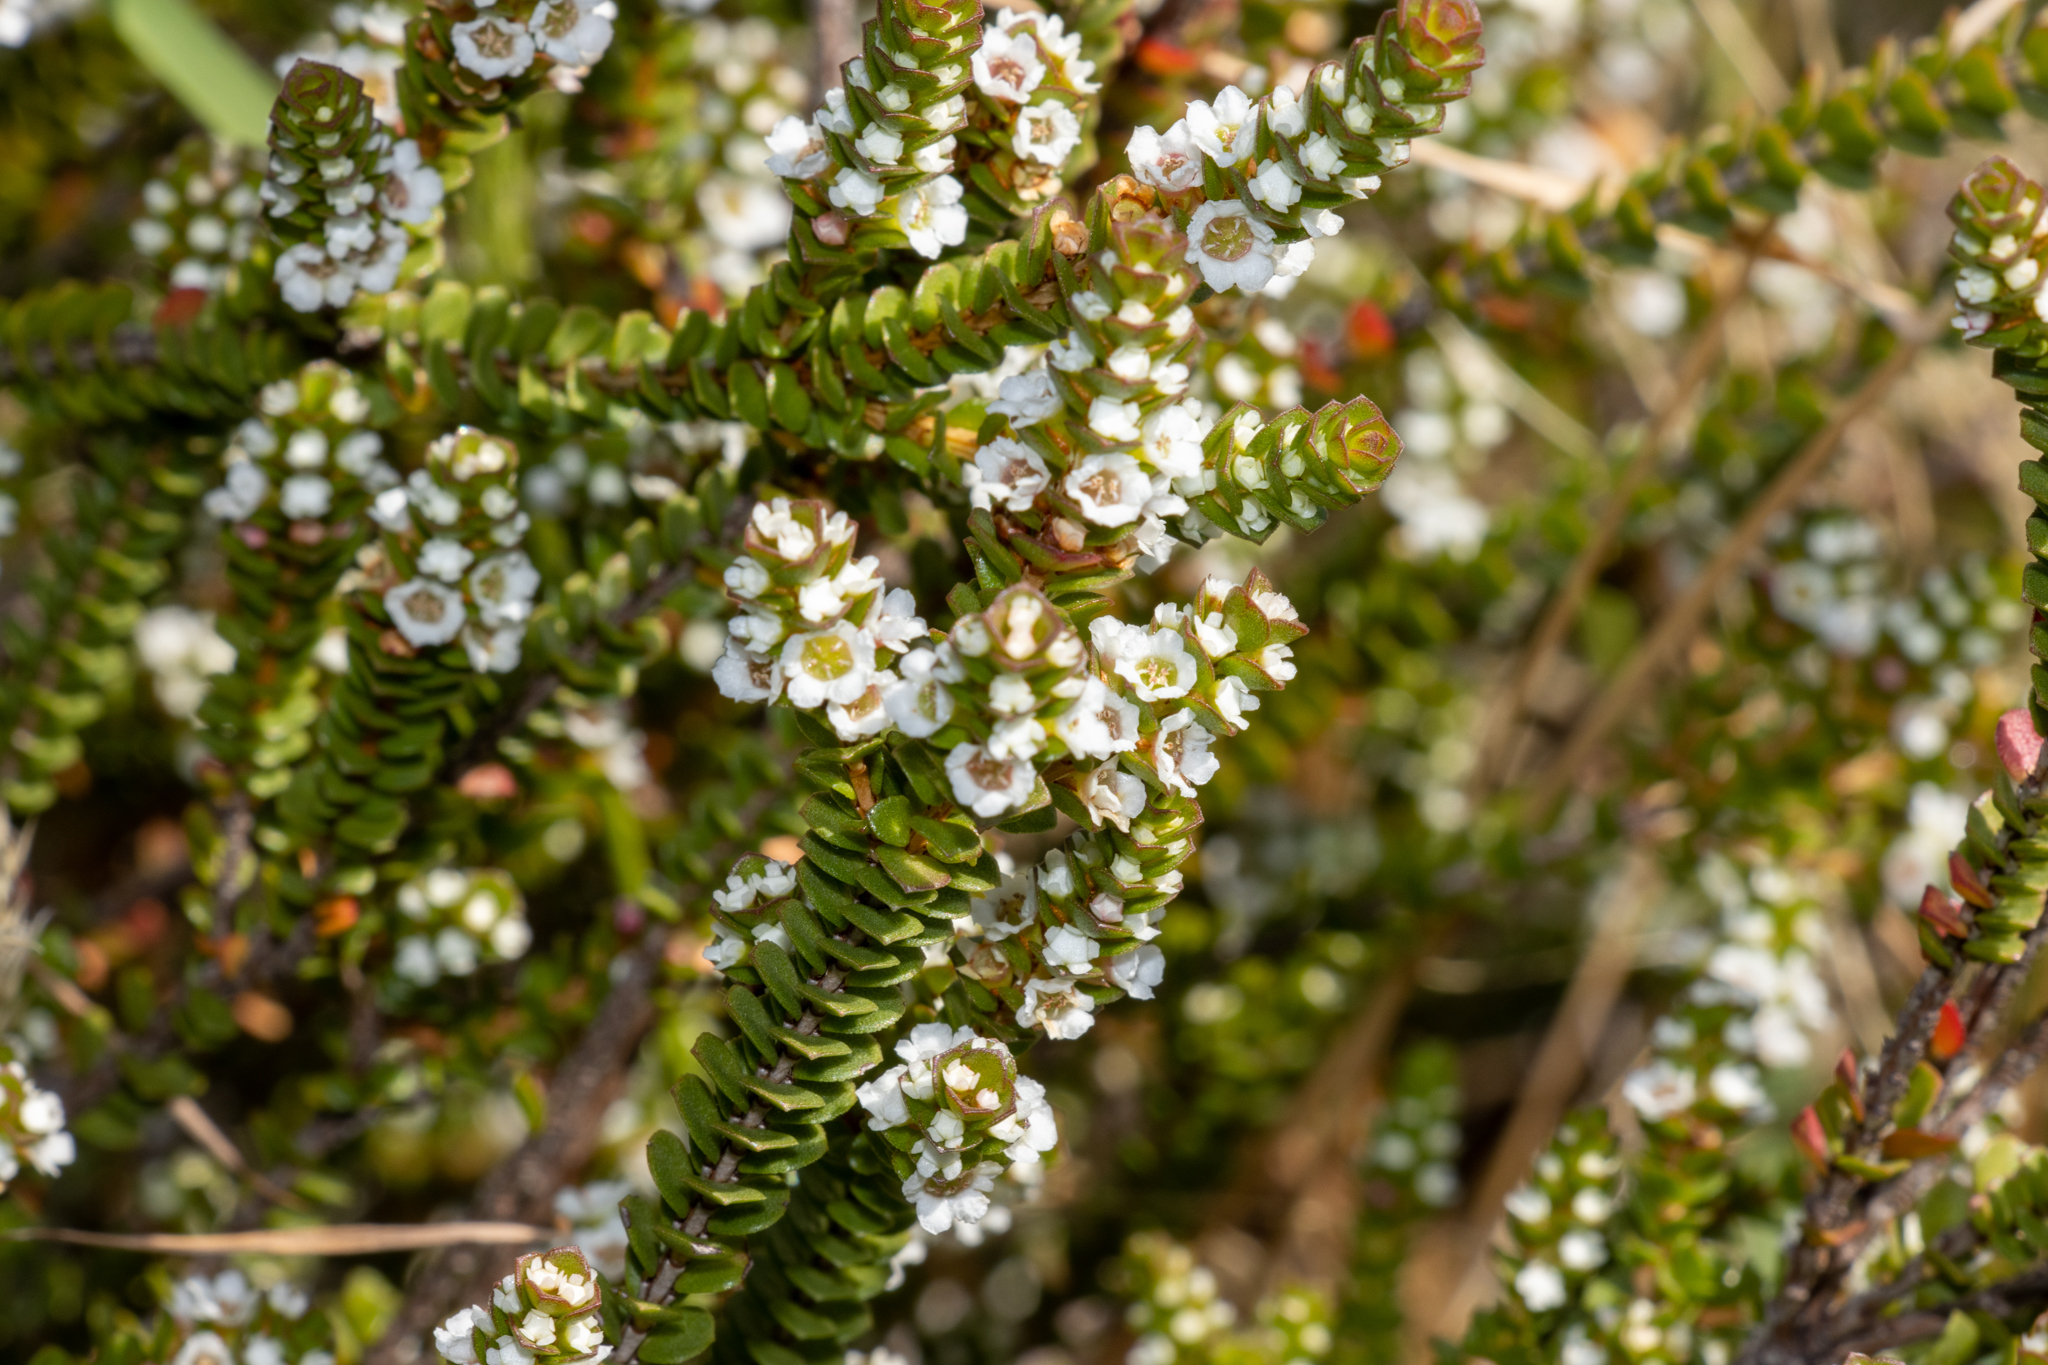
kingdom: Plantae
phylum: Tracheophyta
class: Magnoliopsida
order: Myrtales
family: Myrtaceae
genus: Baeckea
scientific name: Baeckea imbricata
